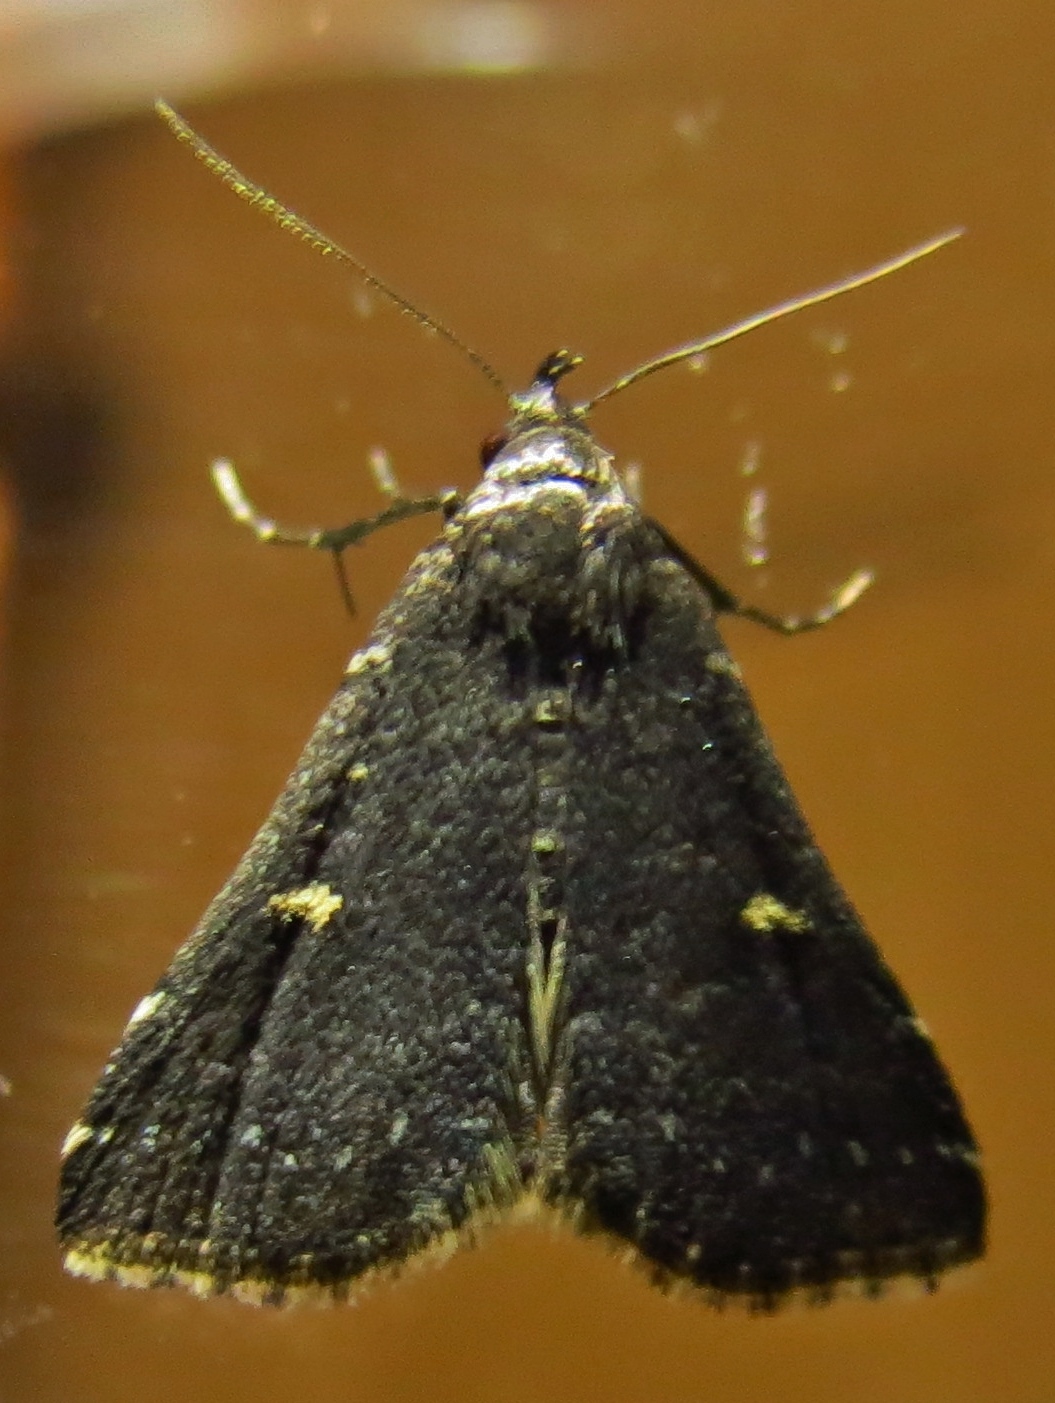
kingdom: Animalia
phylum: Arthropoda
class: Insecta
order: Lepidoptera
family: Erebidae
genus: Tetanolita
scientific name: Tetanolita mynesalis
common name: Smoky tetanolita moth
